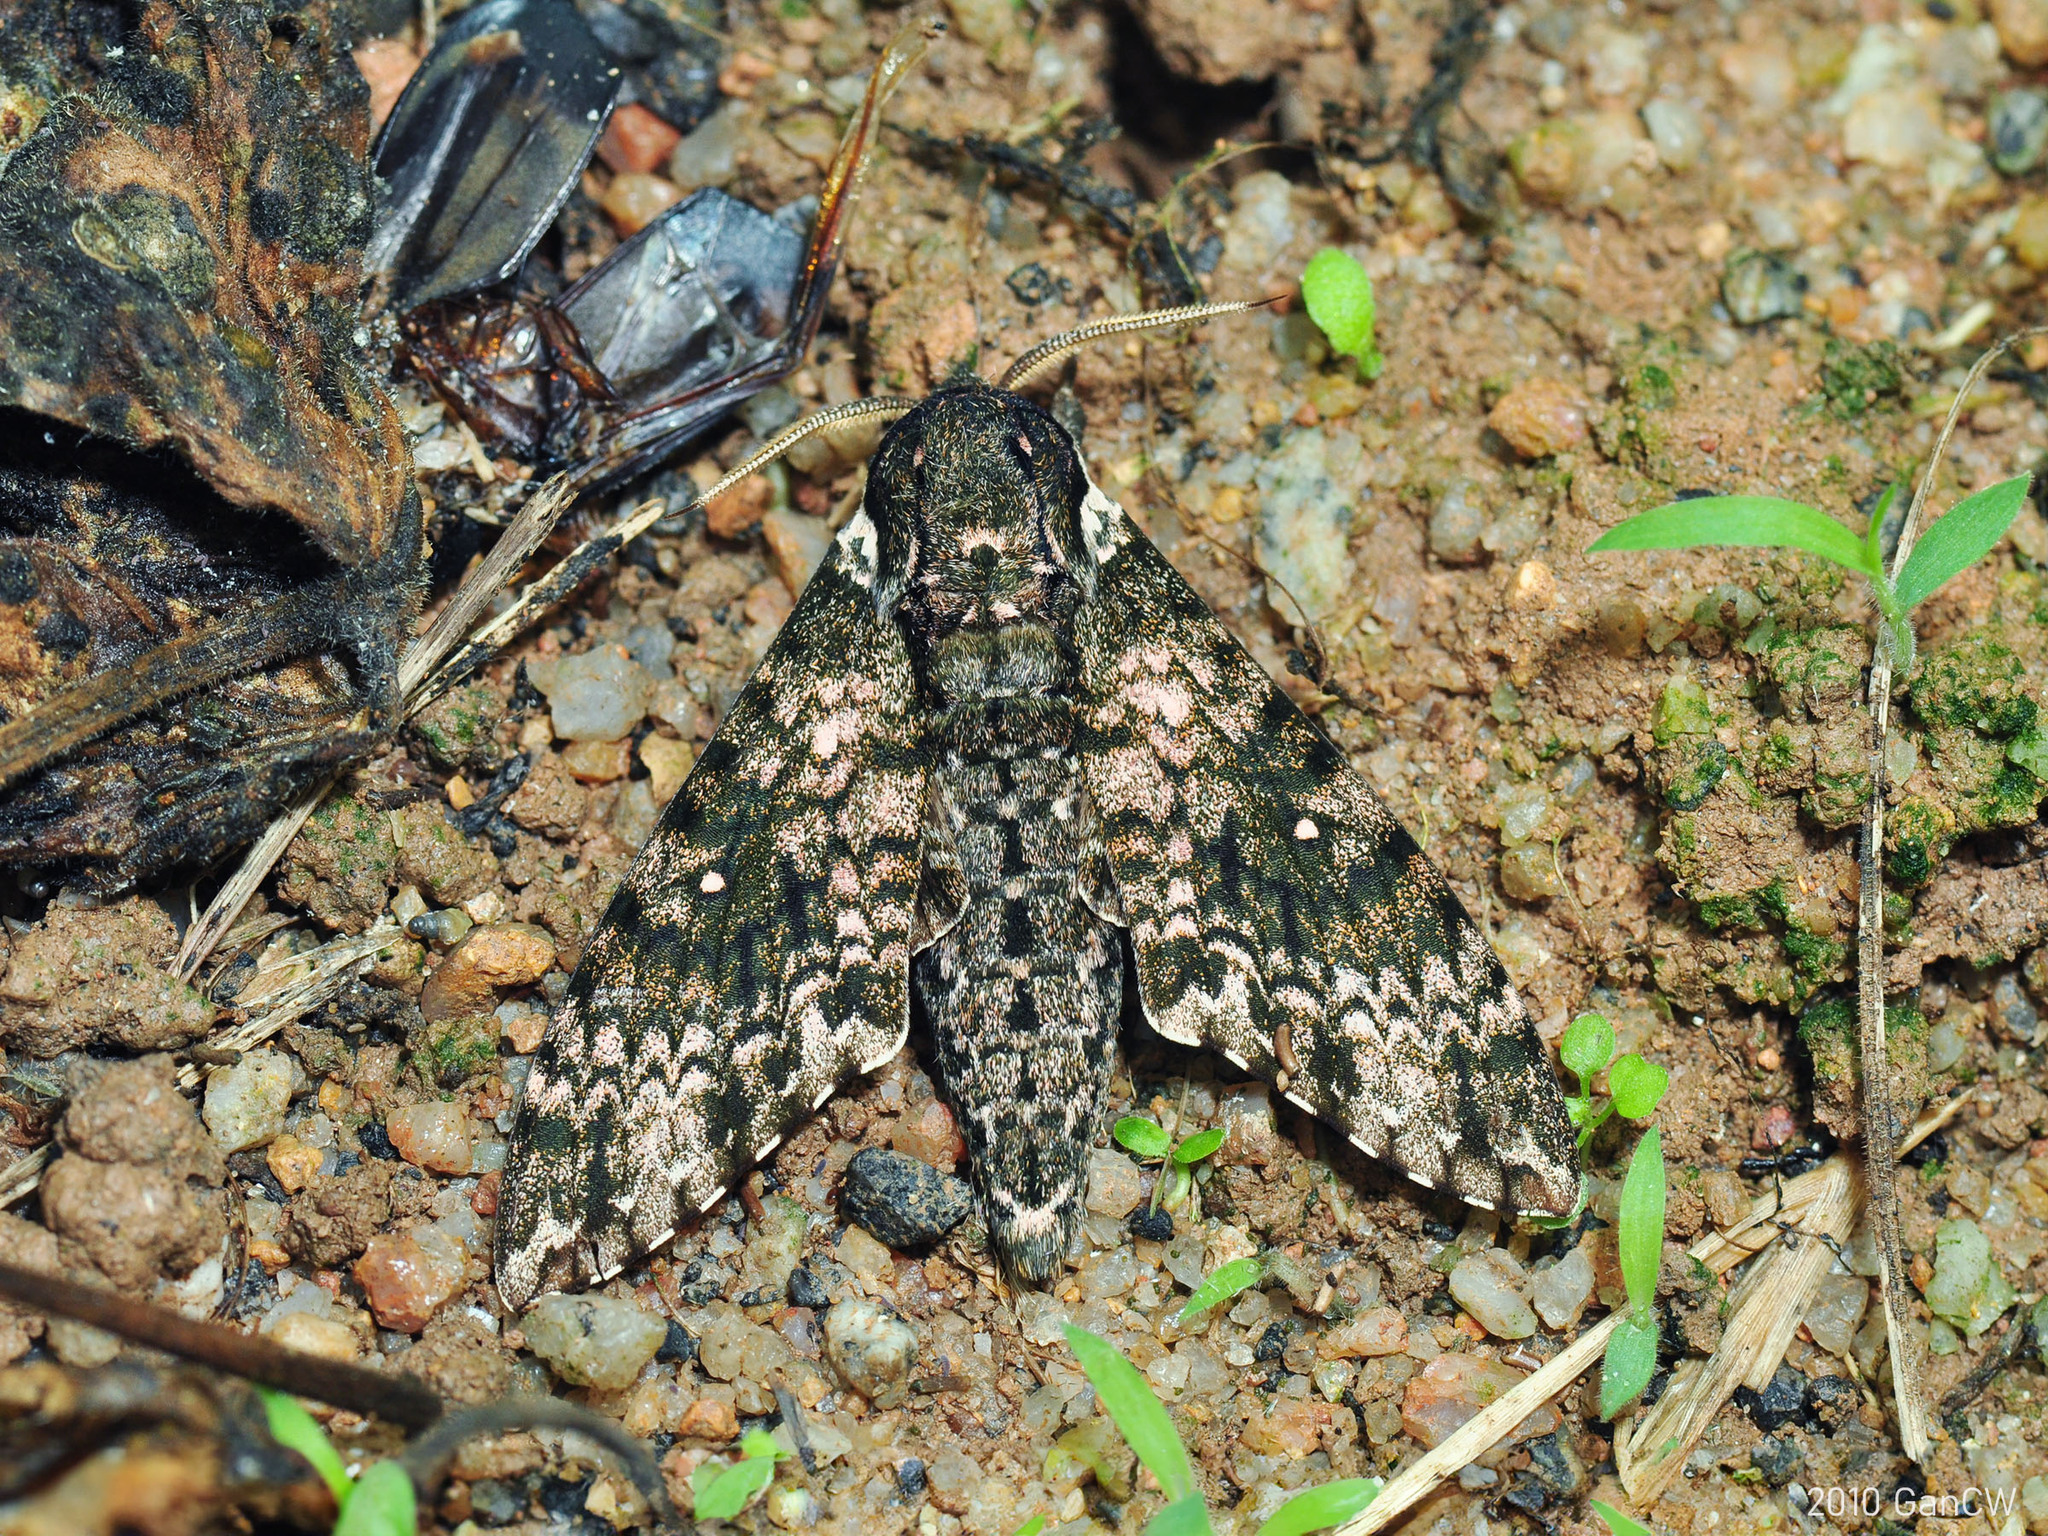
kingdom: Animalia
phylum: Arthropoda
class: Insecta
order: Lepidoptera
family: Sphingidae
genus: Dolbina
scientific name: Dolbina borneensis
